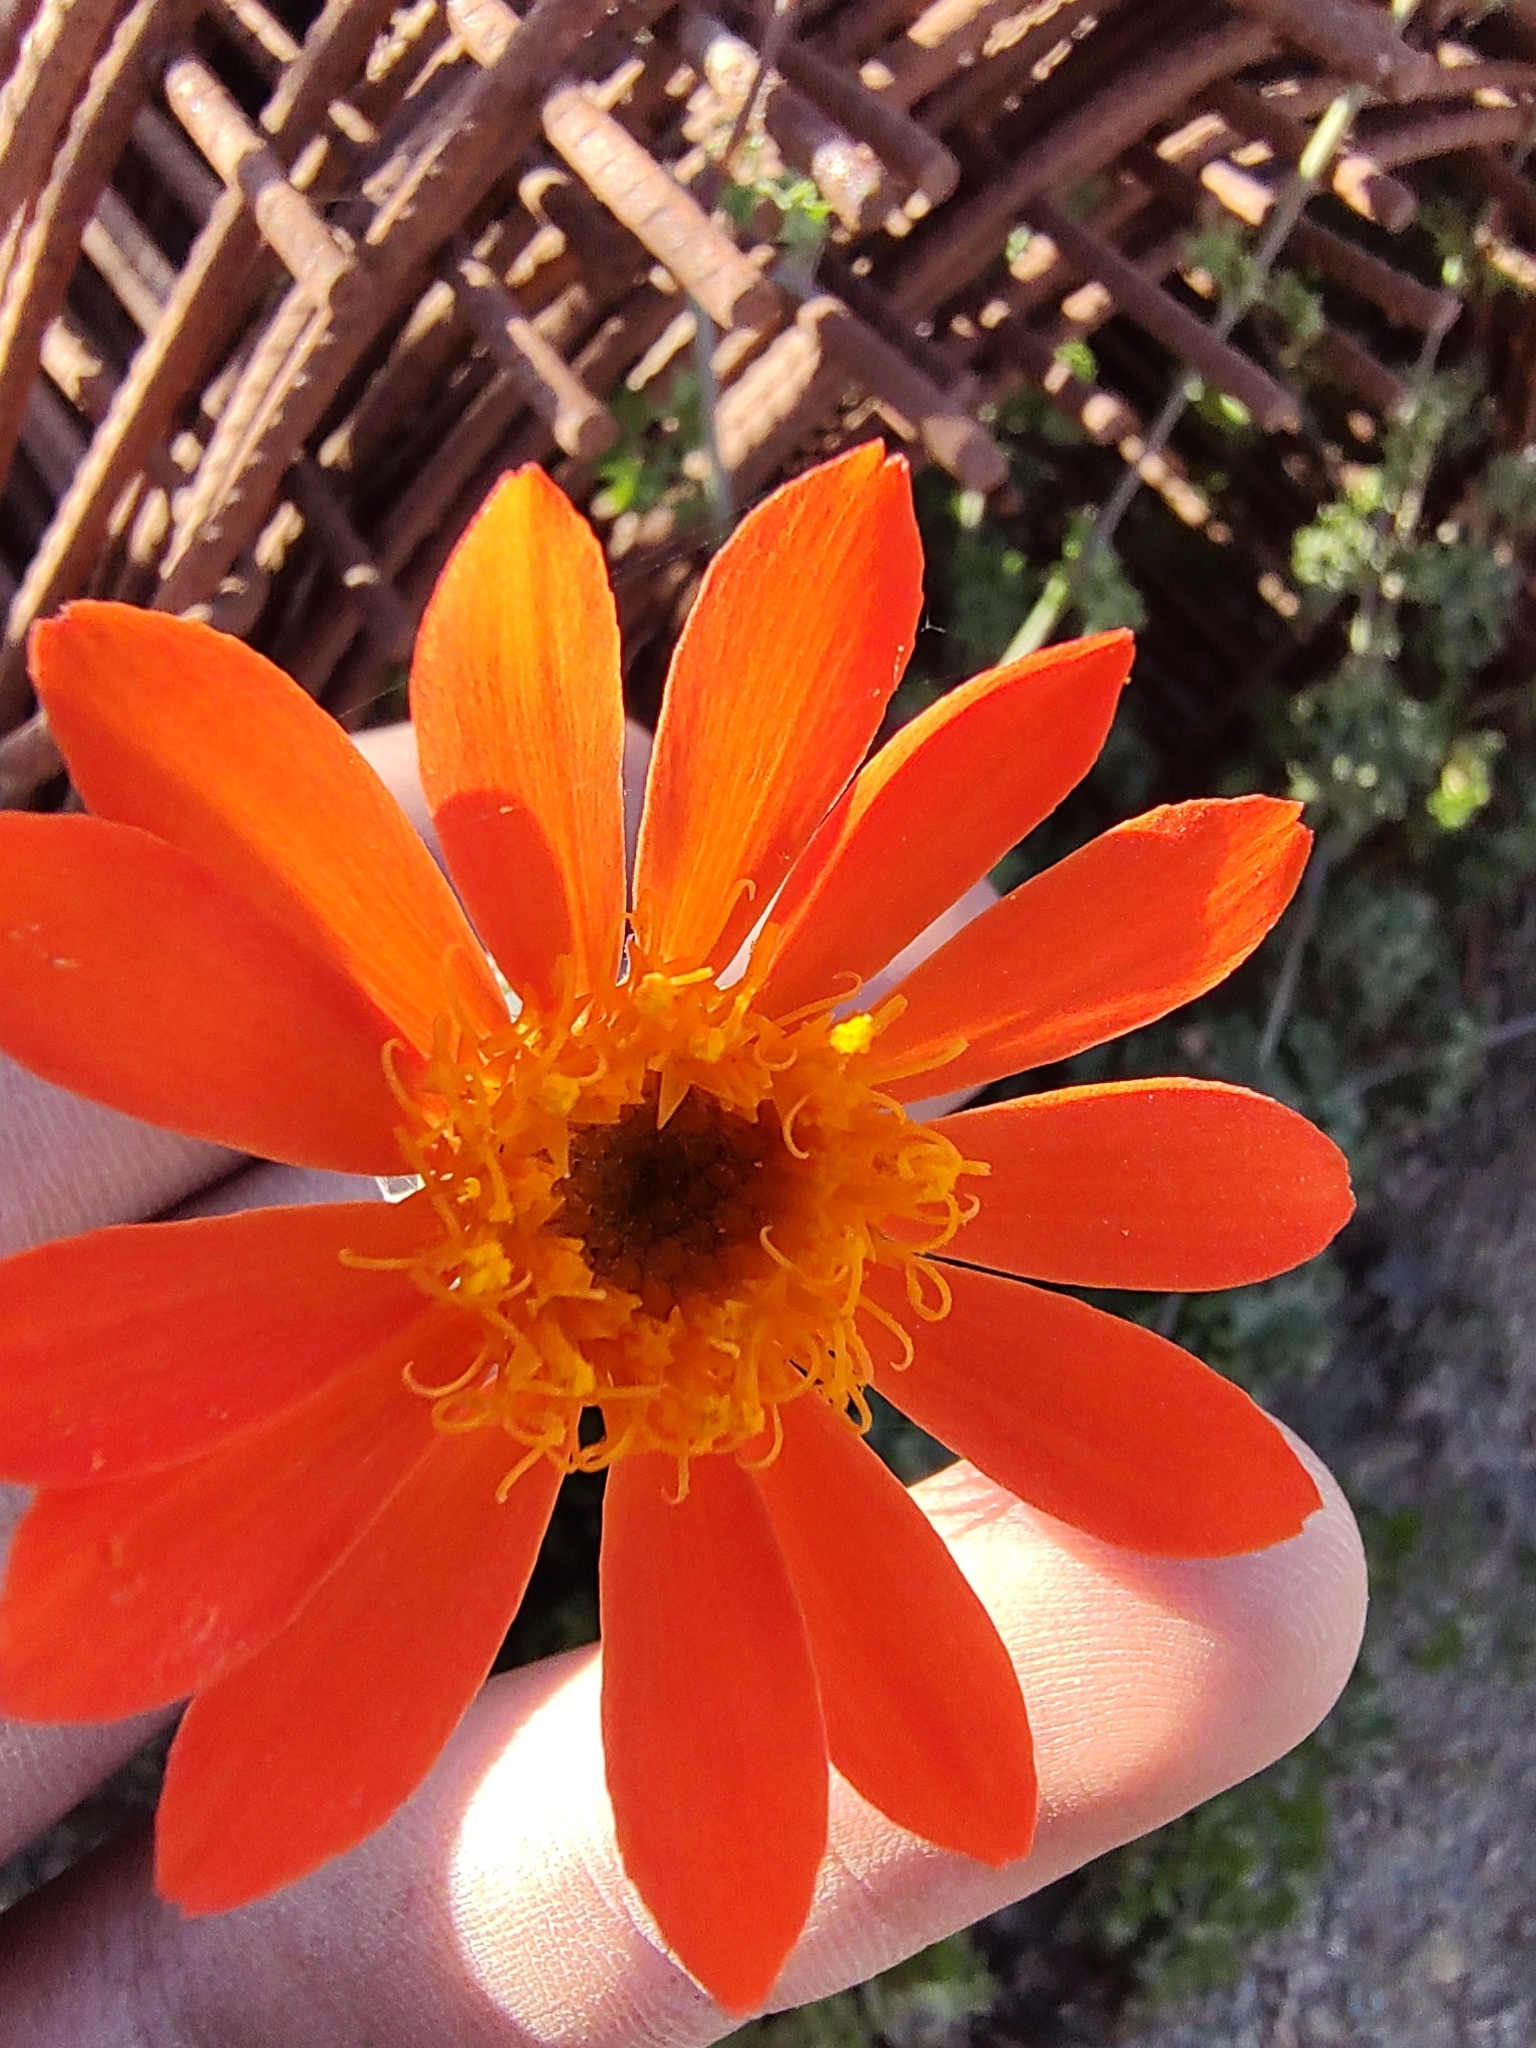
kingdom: Plantae
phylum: Tracheophyta
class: Magnoliopsida
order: Asterales
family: Asteraceae
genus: Adenophyllum
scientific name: Adenophyllum speciosum
